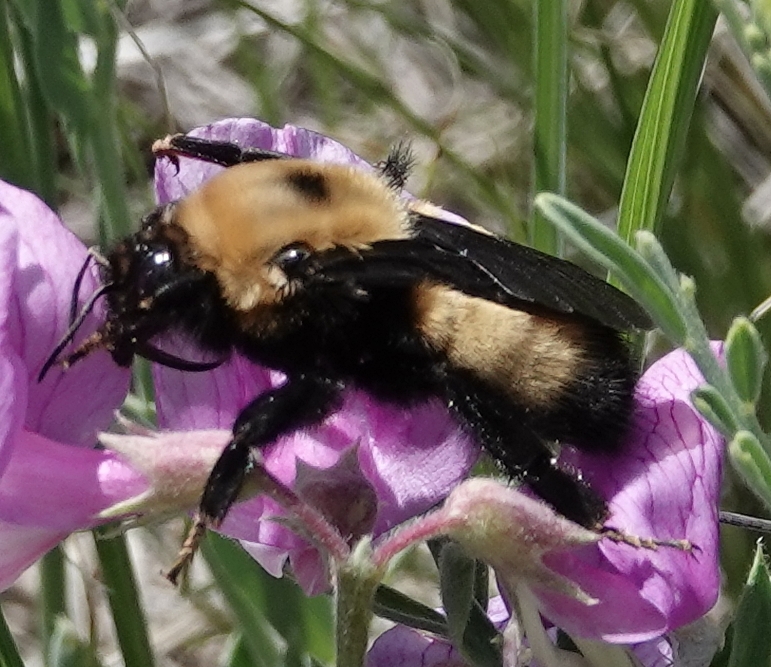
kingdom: Animalia
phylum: Arthropoda
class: Insecta
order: Hymenoptera
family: Apidae
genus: Bombus
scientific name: Bombus nevadensis
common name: Nevada bumble bee
